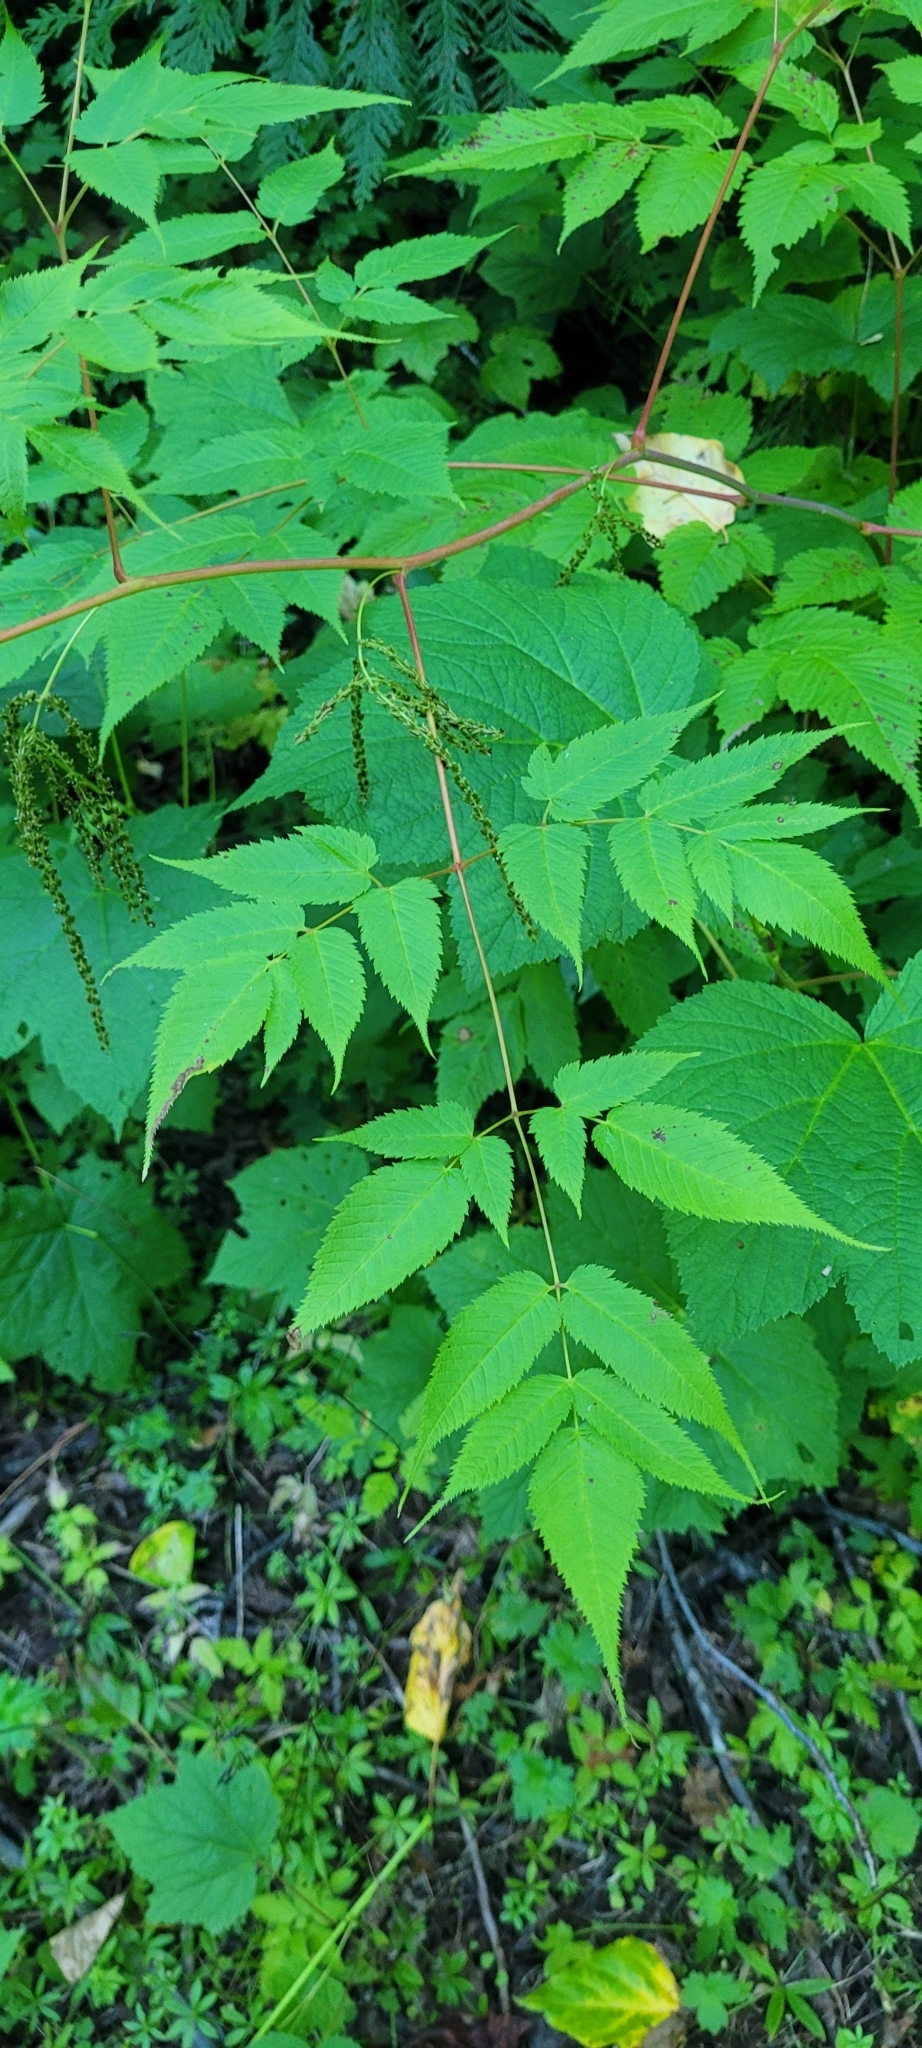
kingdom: Plantae
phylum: Tracheophyta
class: Magnoliopsida
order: Rosales
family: Rosaceae
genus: Aruncus
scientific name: Aruncus dioicus
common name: Buck's-beard
